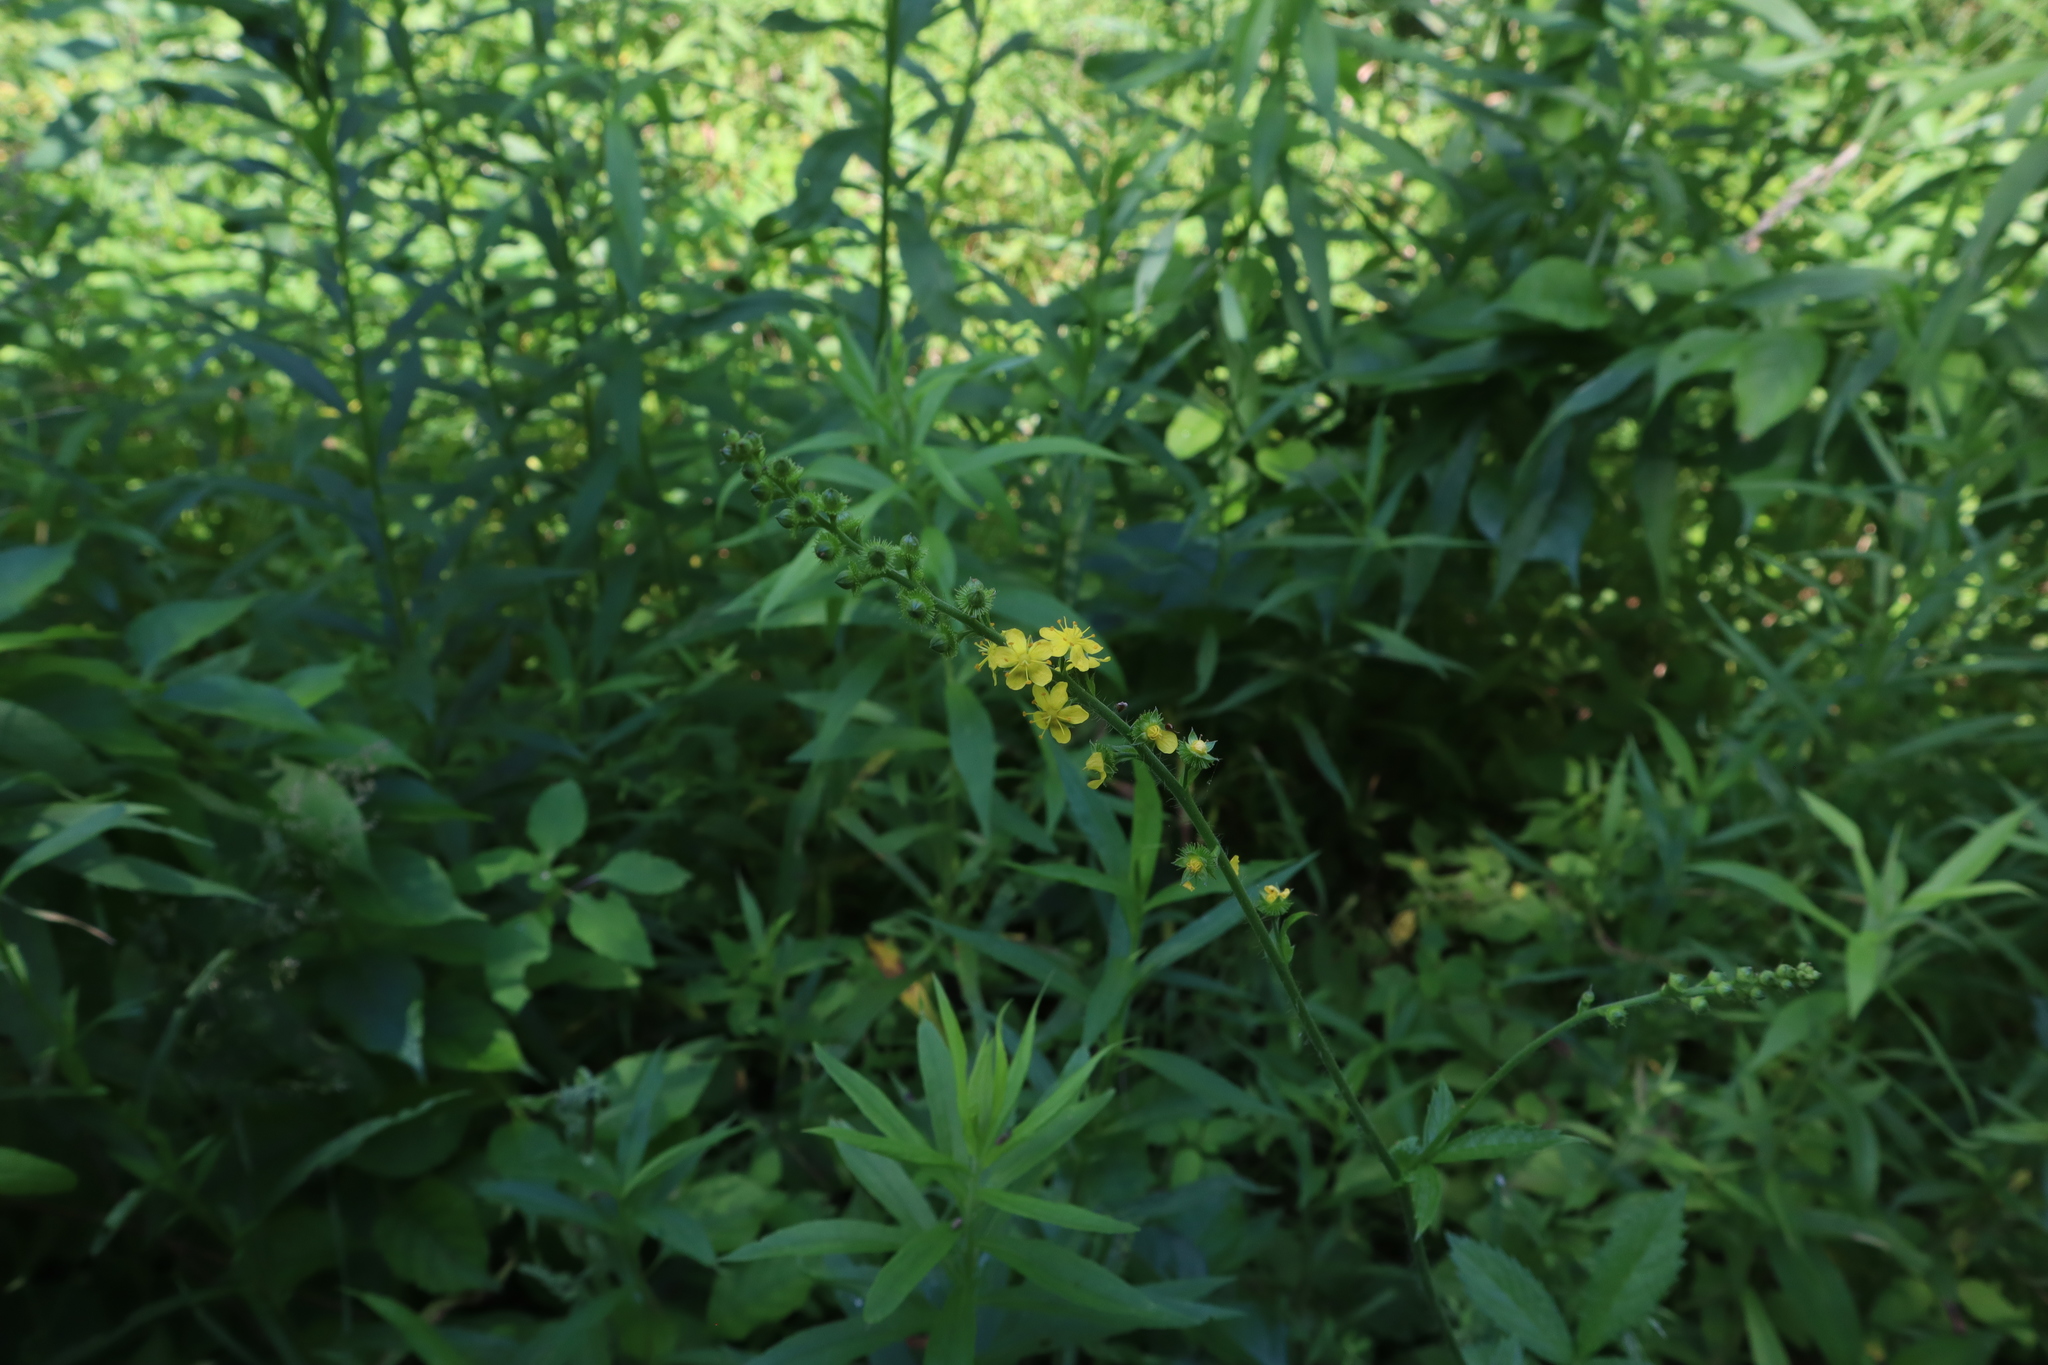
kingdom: Plantae
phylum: Tracheophyta
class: Magnoliopsida
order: Rosales
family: Rosaceae
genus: Agrimonia
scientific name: Agrimonia gryposepala
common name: Common agrimony
